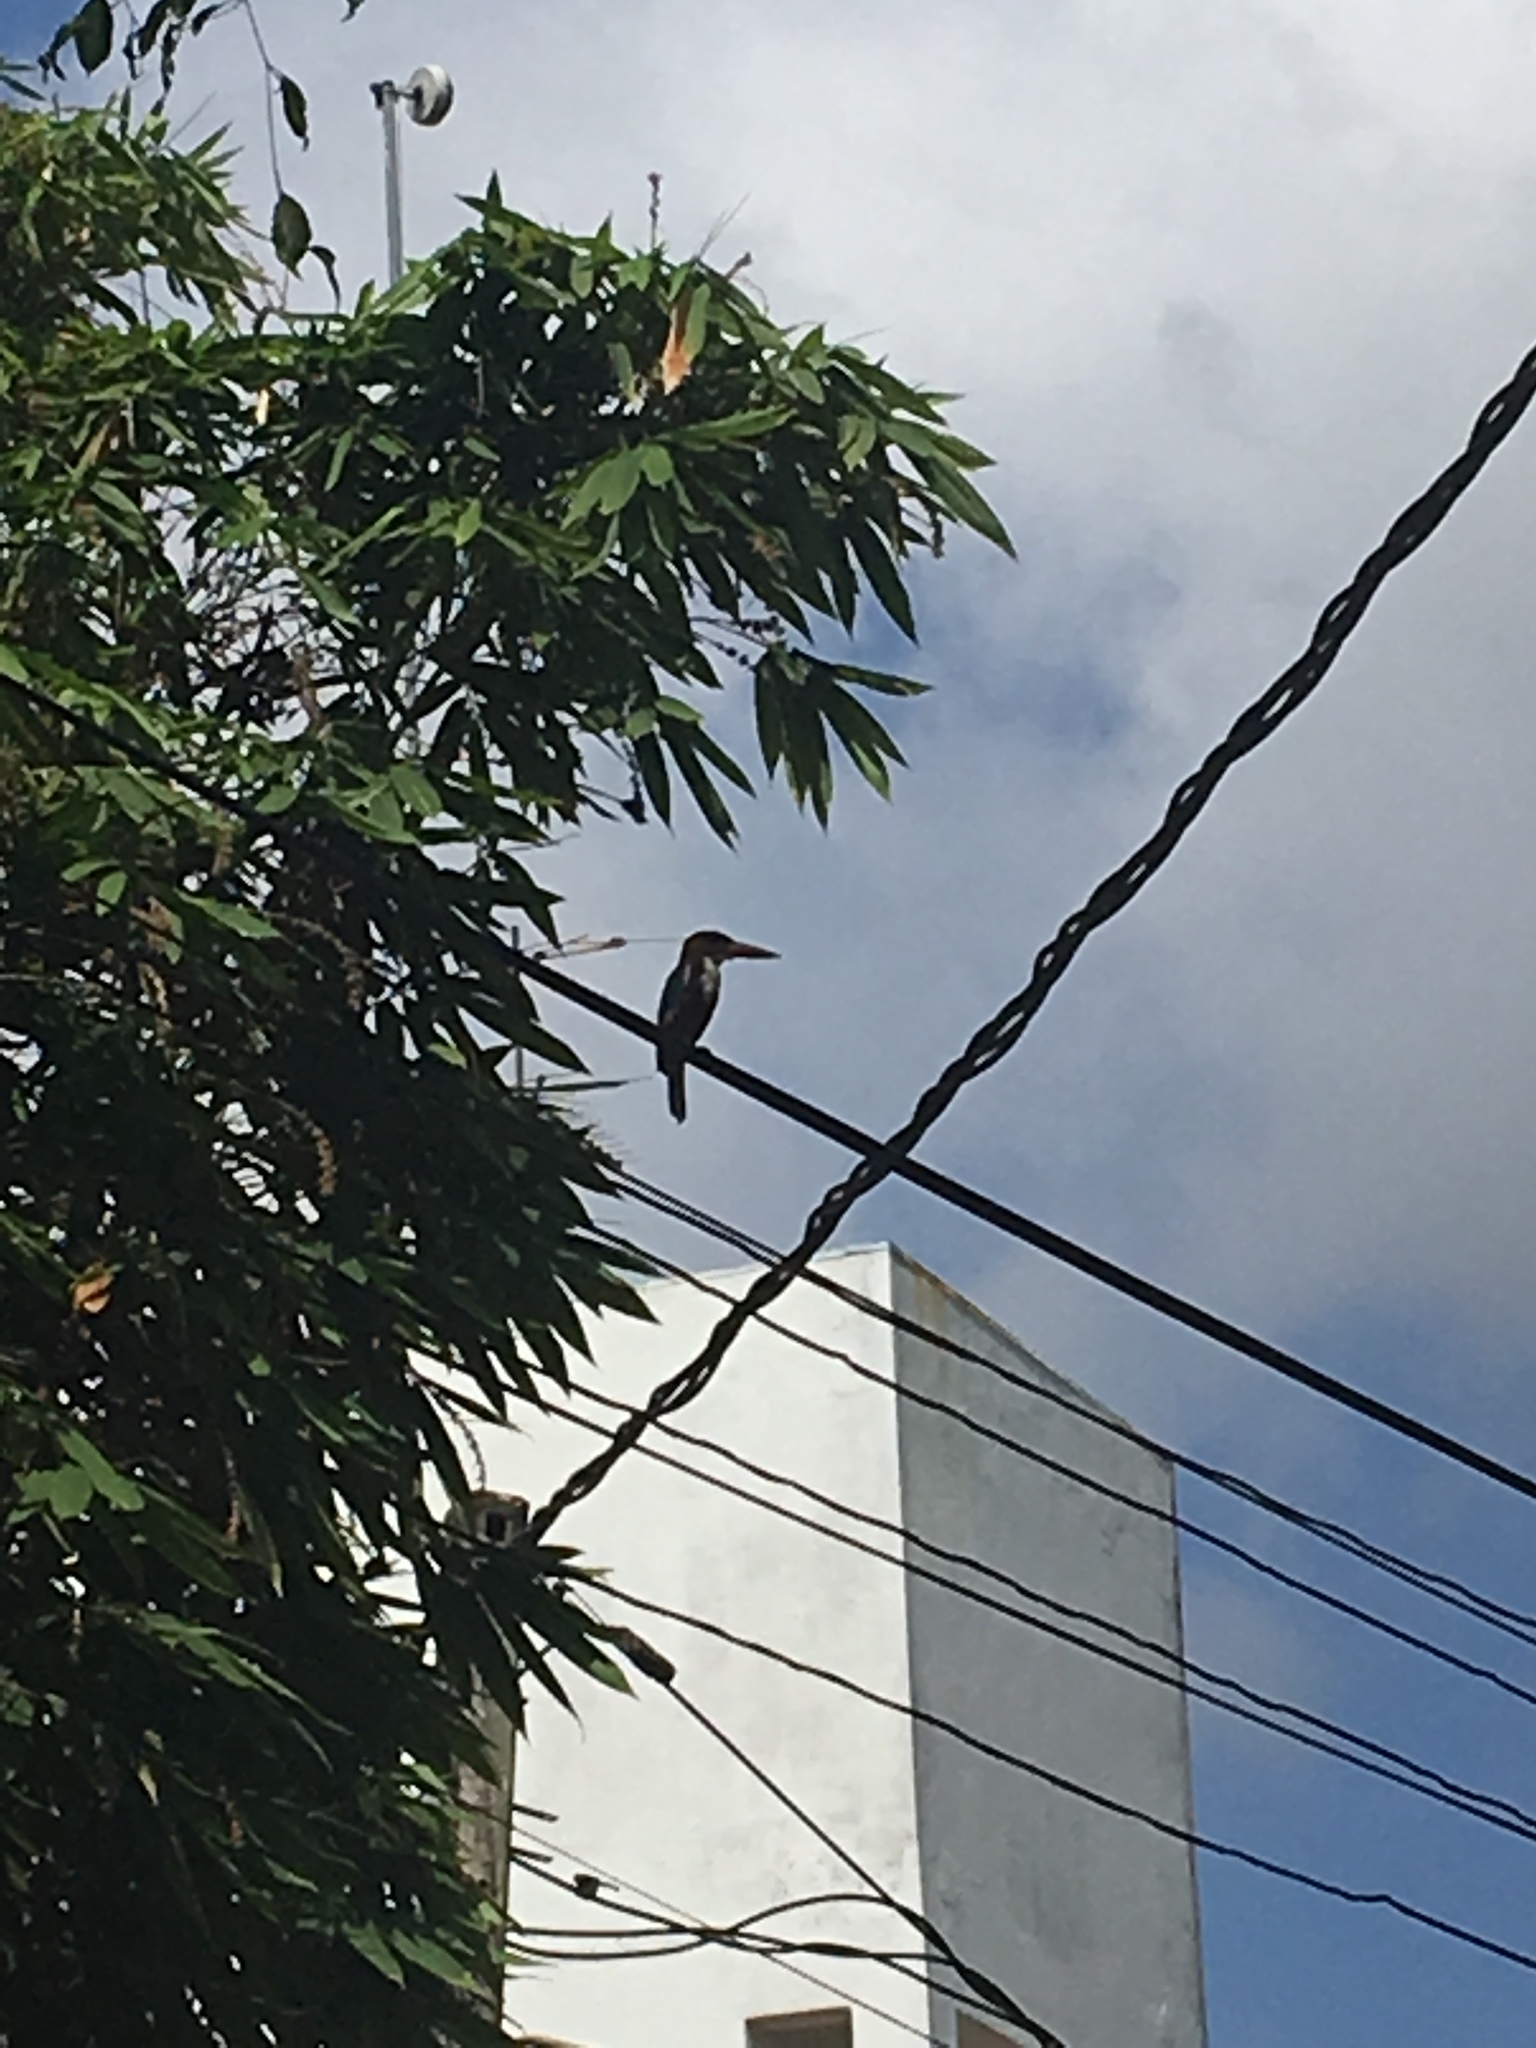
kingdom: Animalia
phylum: Chordata
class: Aves
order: Coraciiformes
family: Alcedinidae
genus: Halcyon
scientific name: Halcyon smyrnensis
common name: White-throated kingfisher
